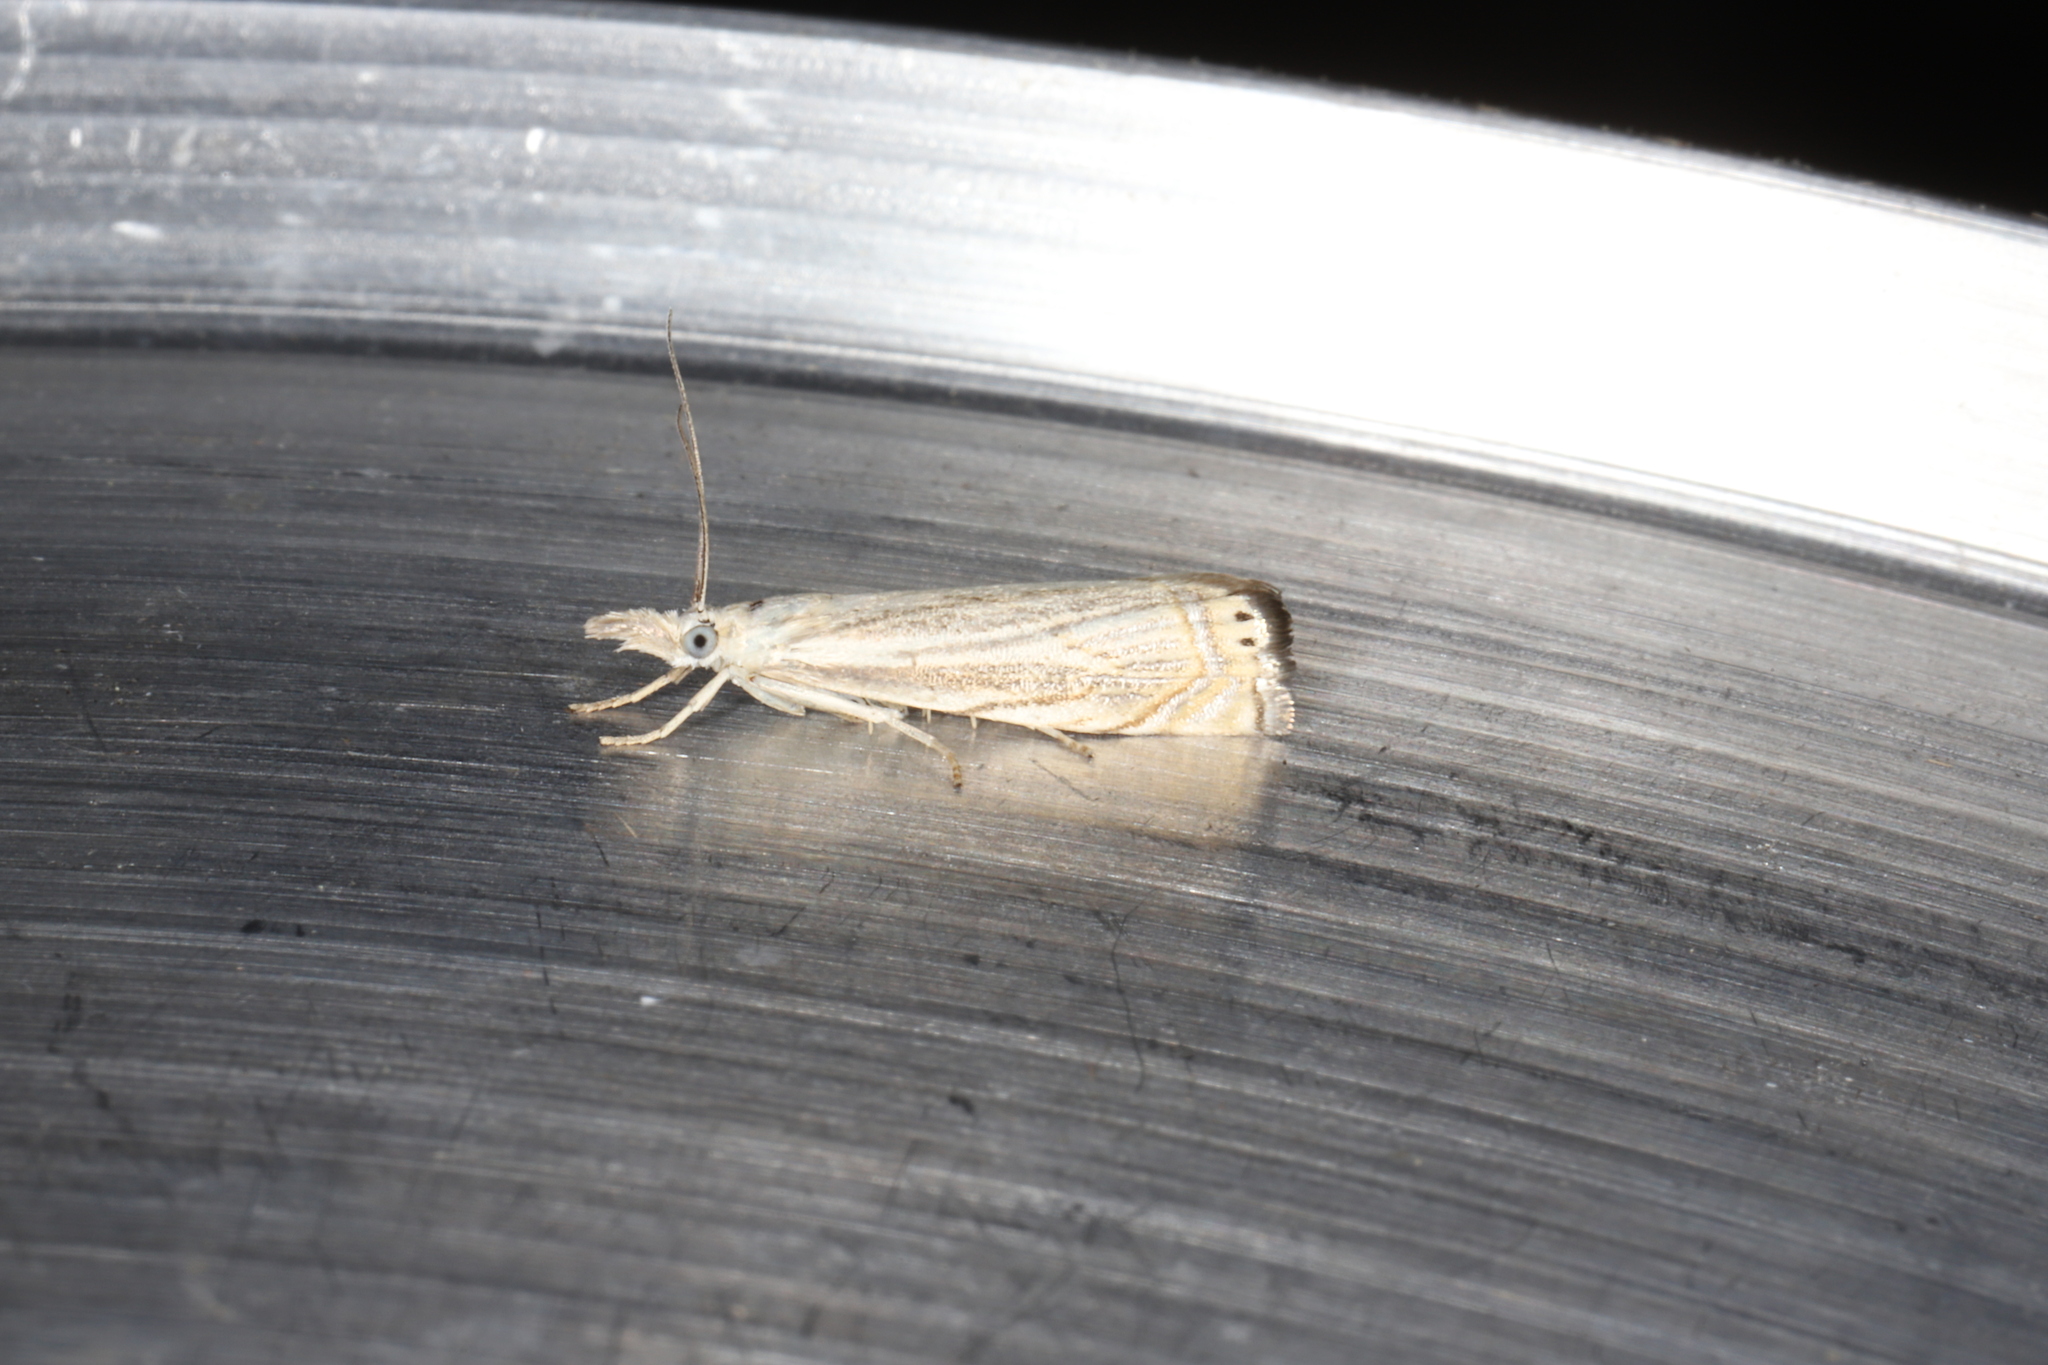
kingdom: Animalia
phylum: Arthropoda
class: Insecta
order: Lepidoptera
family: Crambidae
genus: Chrysoteuchia
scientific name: Chrysoteuchia topiarius
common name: Topiary grass-veneer
